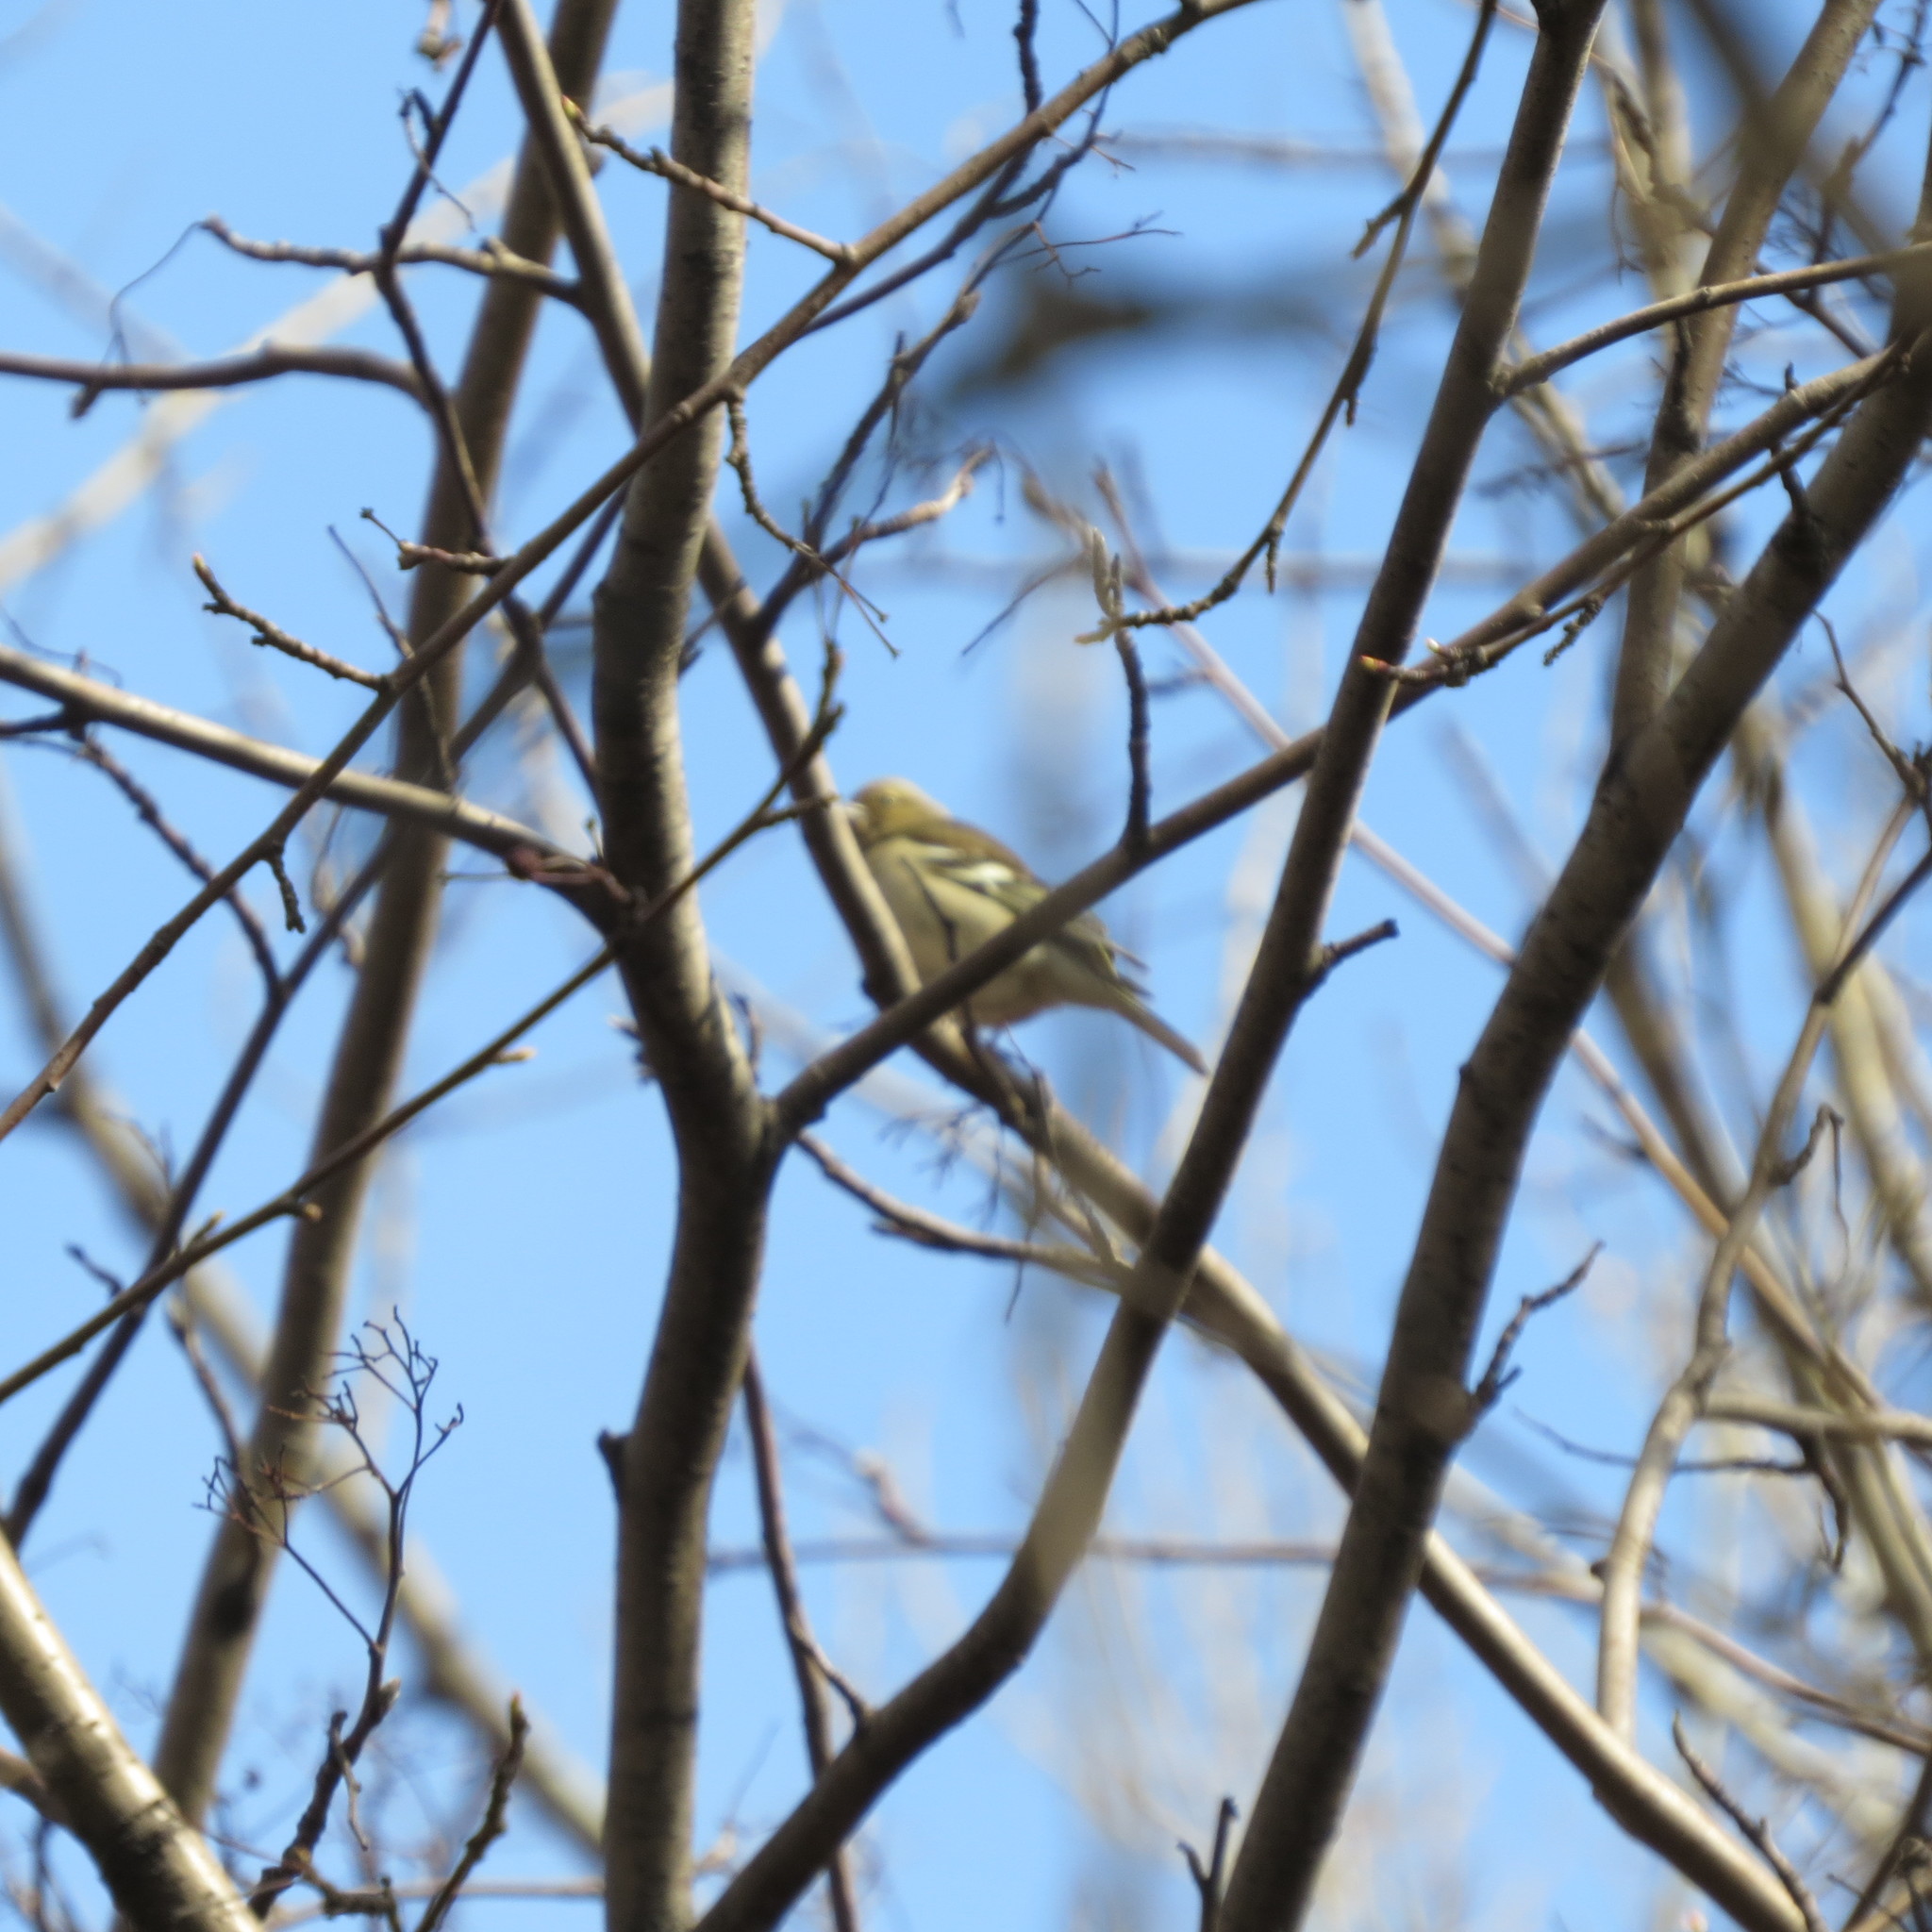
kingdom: Animalia
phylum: Chordata
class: Aves
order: Passeriformes
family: Fringillidae
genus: Fringilla
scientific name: Fringilla coelebs
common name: Common chaffinch
